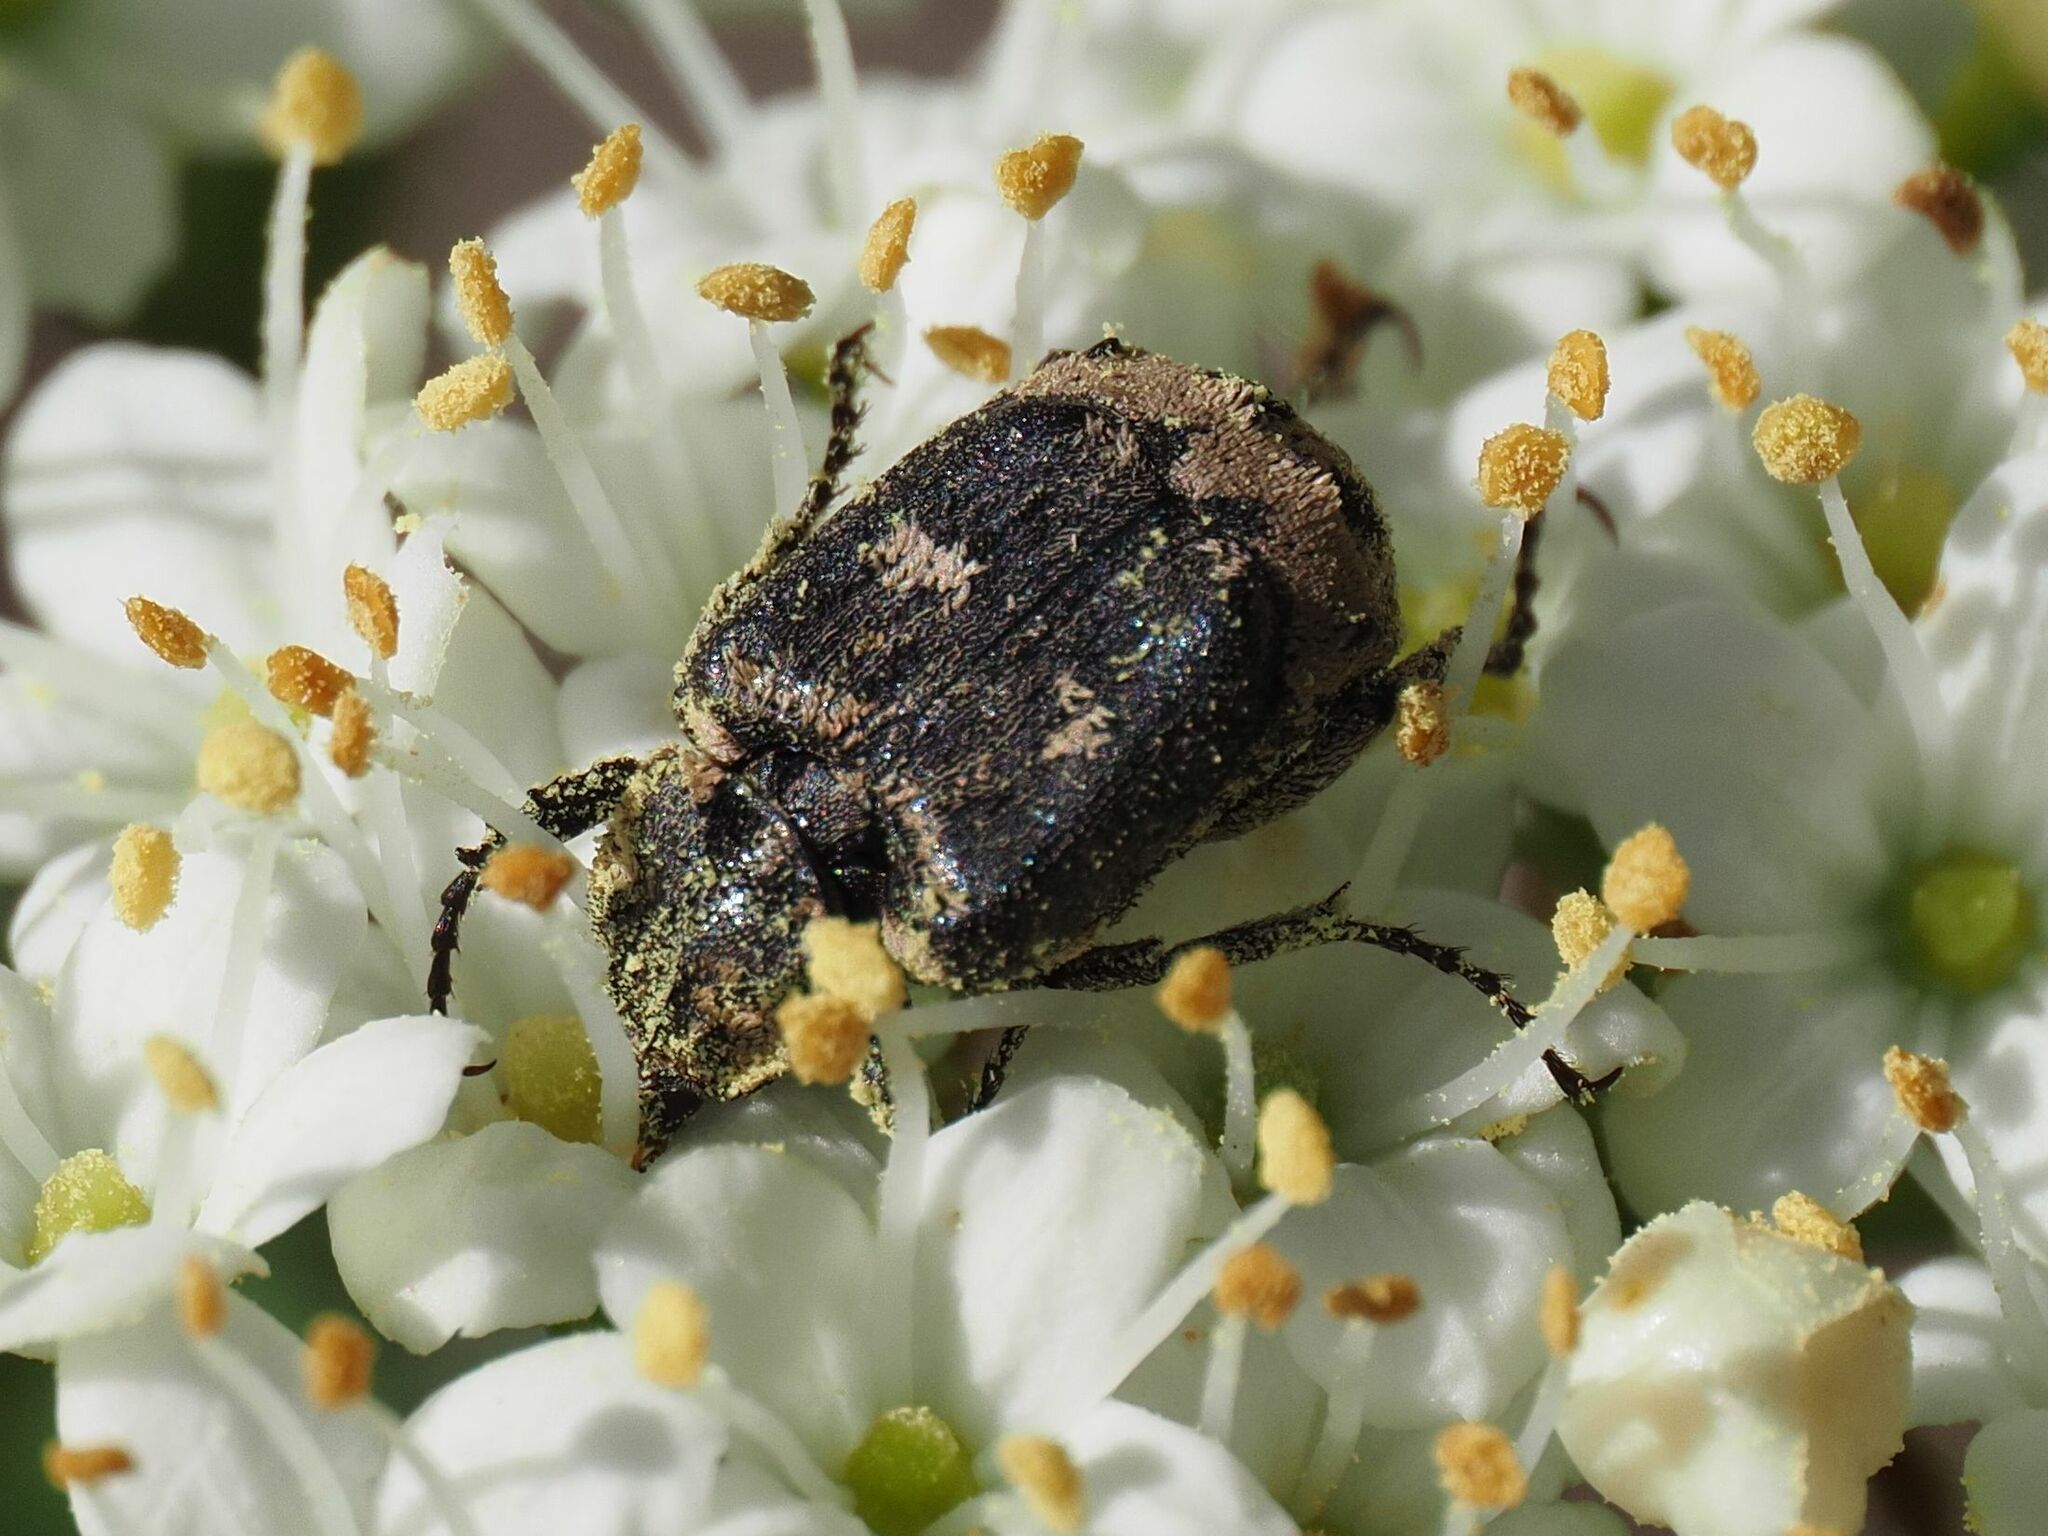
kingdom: Animalia
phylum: Arthropoda
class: Insecta
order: Coleoptera
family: Scarabaeidae
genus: Valgus
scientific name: Valgus hemipterus
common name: Bug flower chafer
